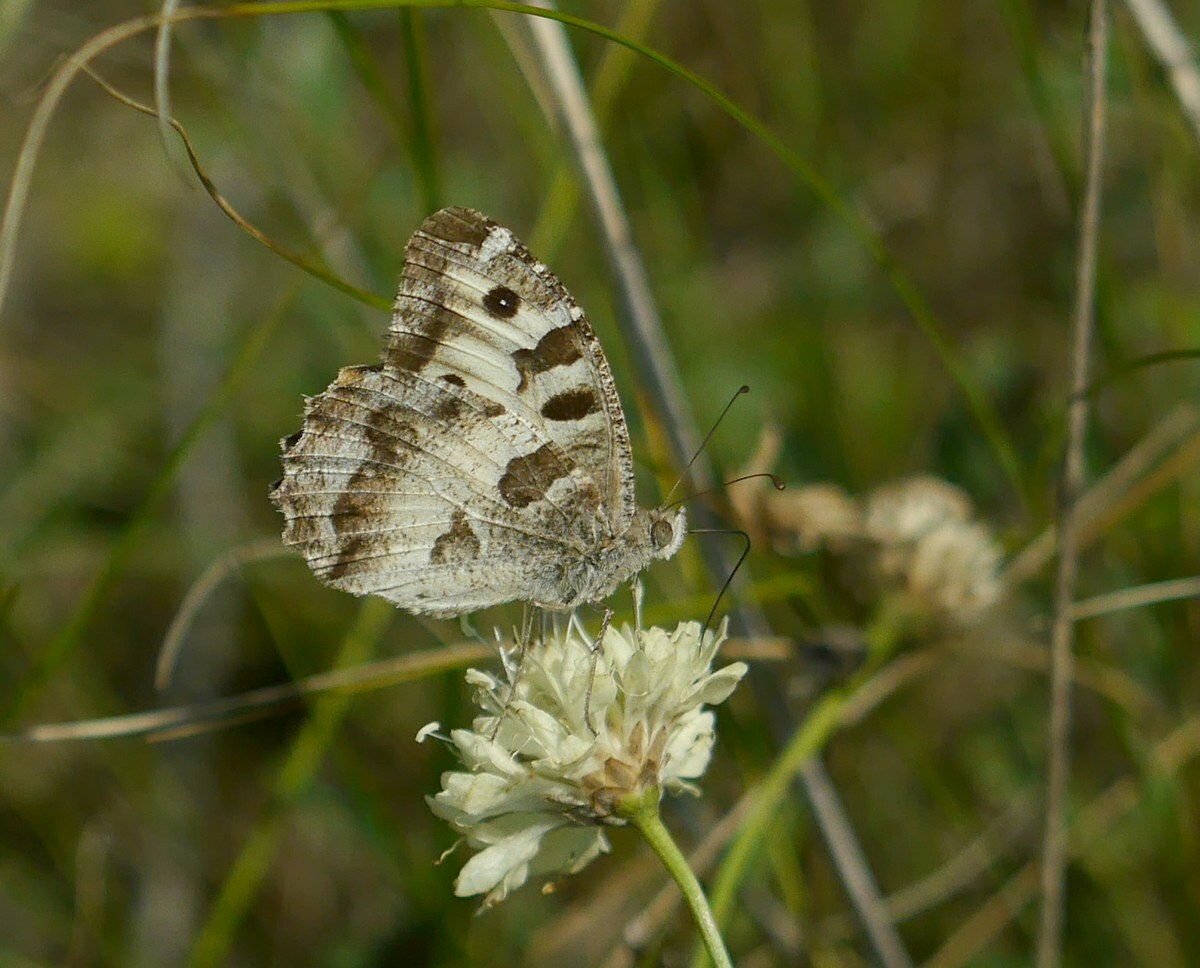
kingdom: Animalia
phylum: Arthropoda
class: Insecta
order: Lepidoptera
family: Nymphalidae
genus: Satyrus
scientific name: Satyrus briseis
